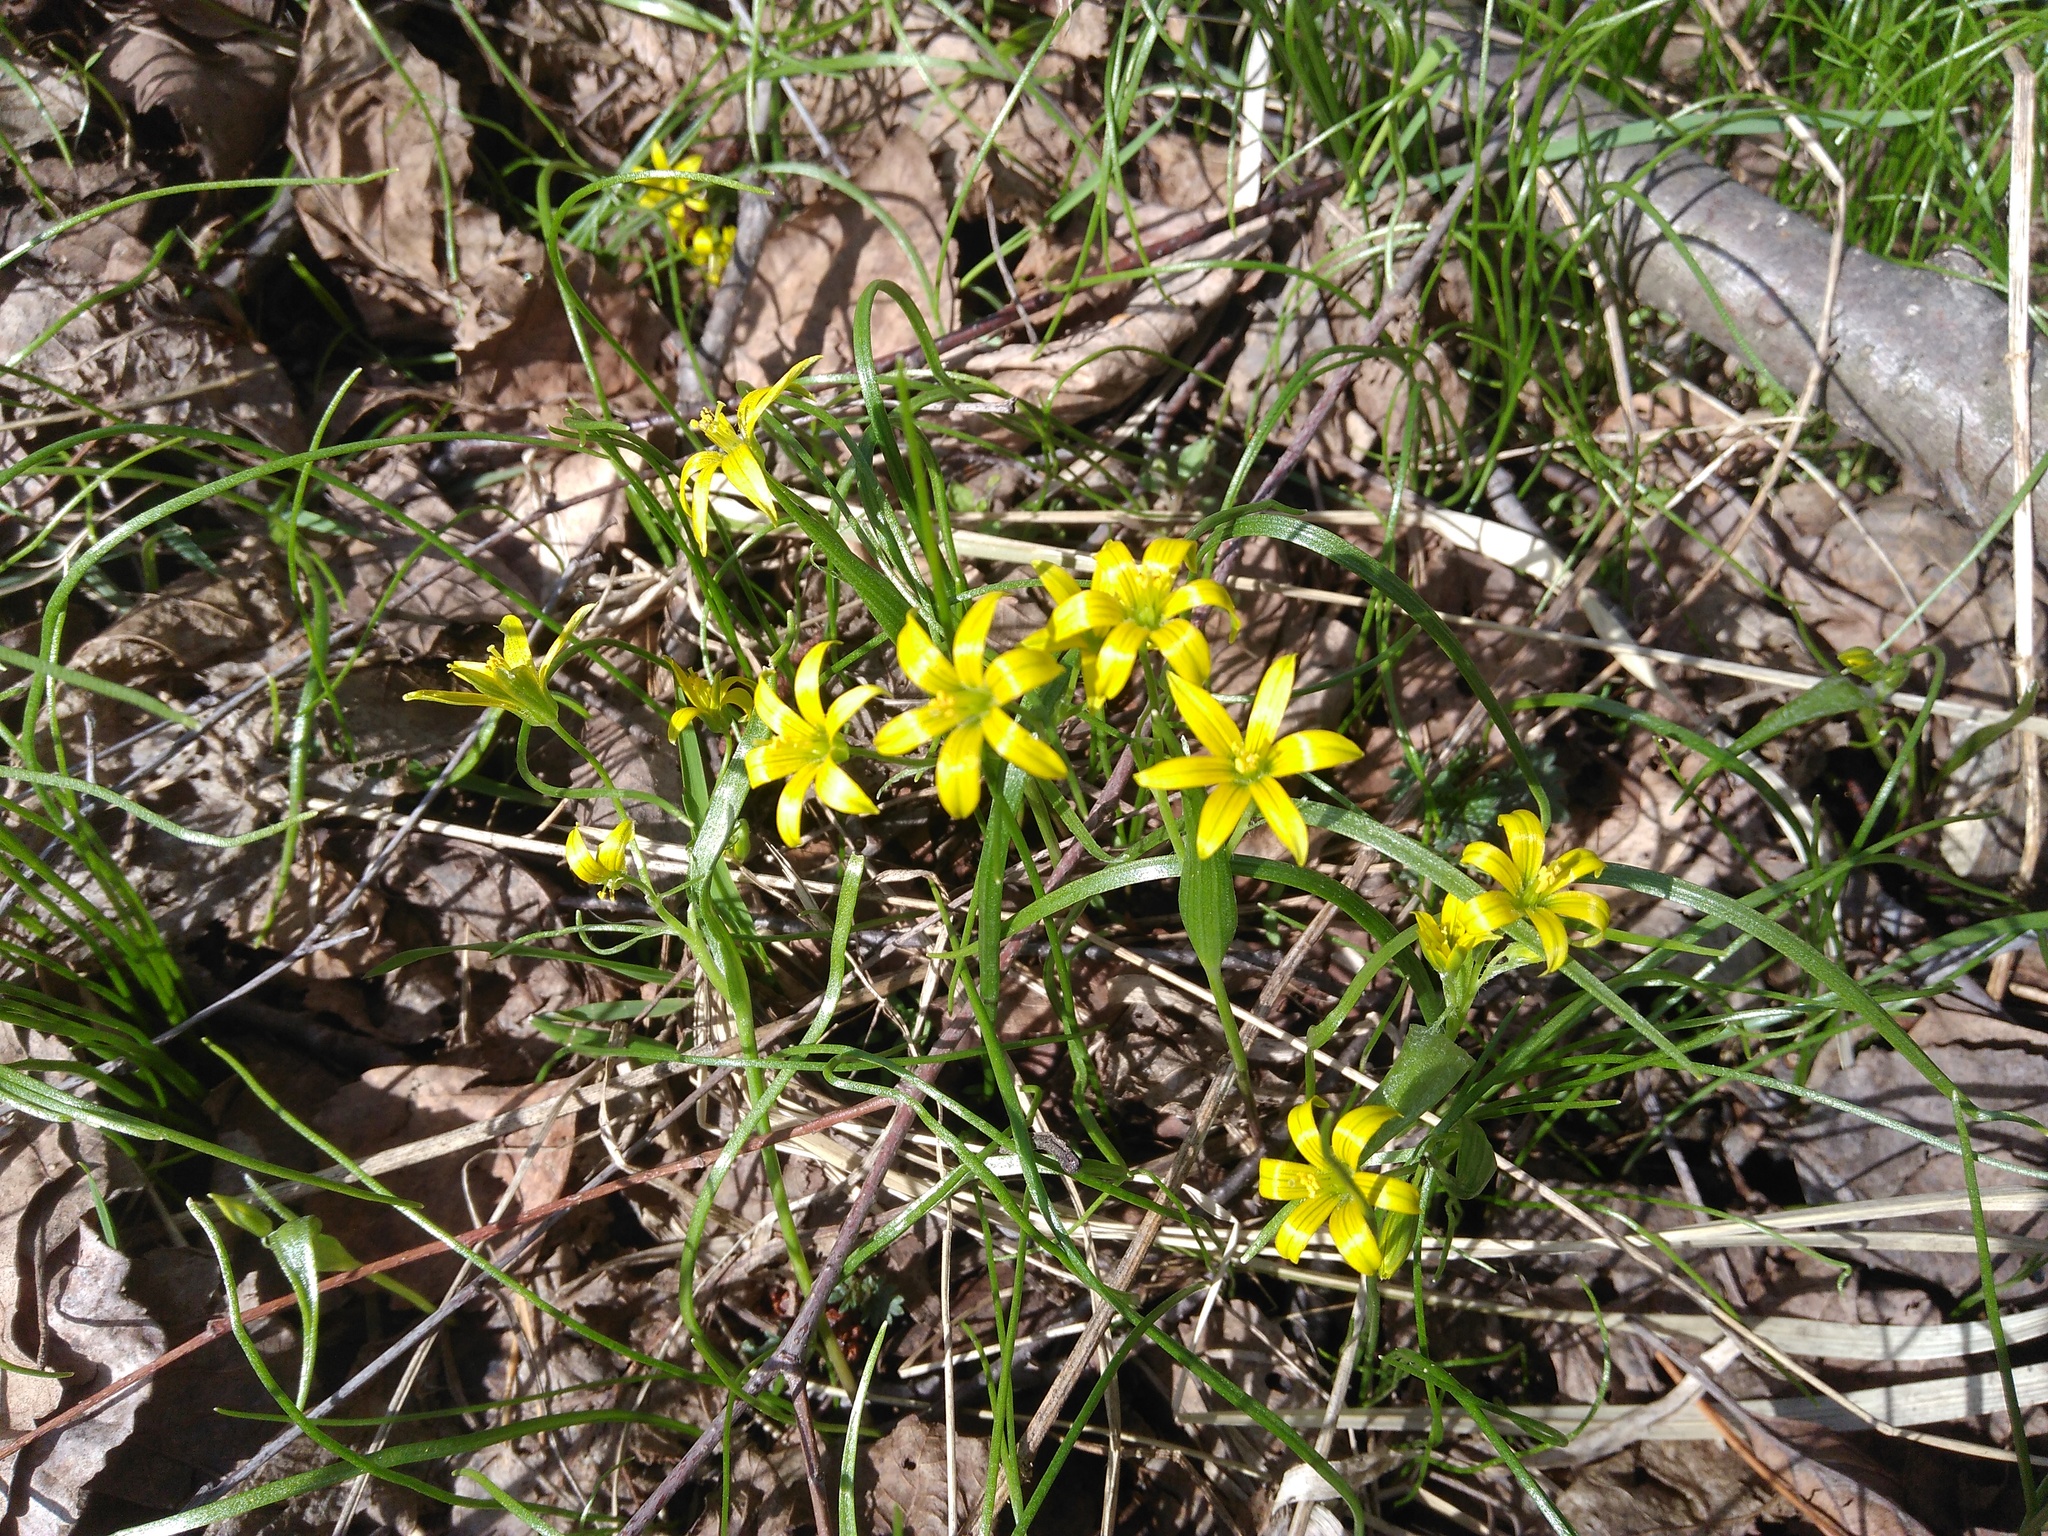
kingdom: Plantae
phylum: Tracheophyta
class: Liliopsida
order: Liliales
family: Liliaceae
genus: Gagea
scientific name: Gagea minima
